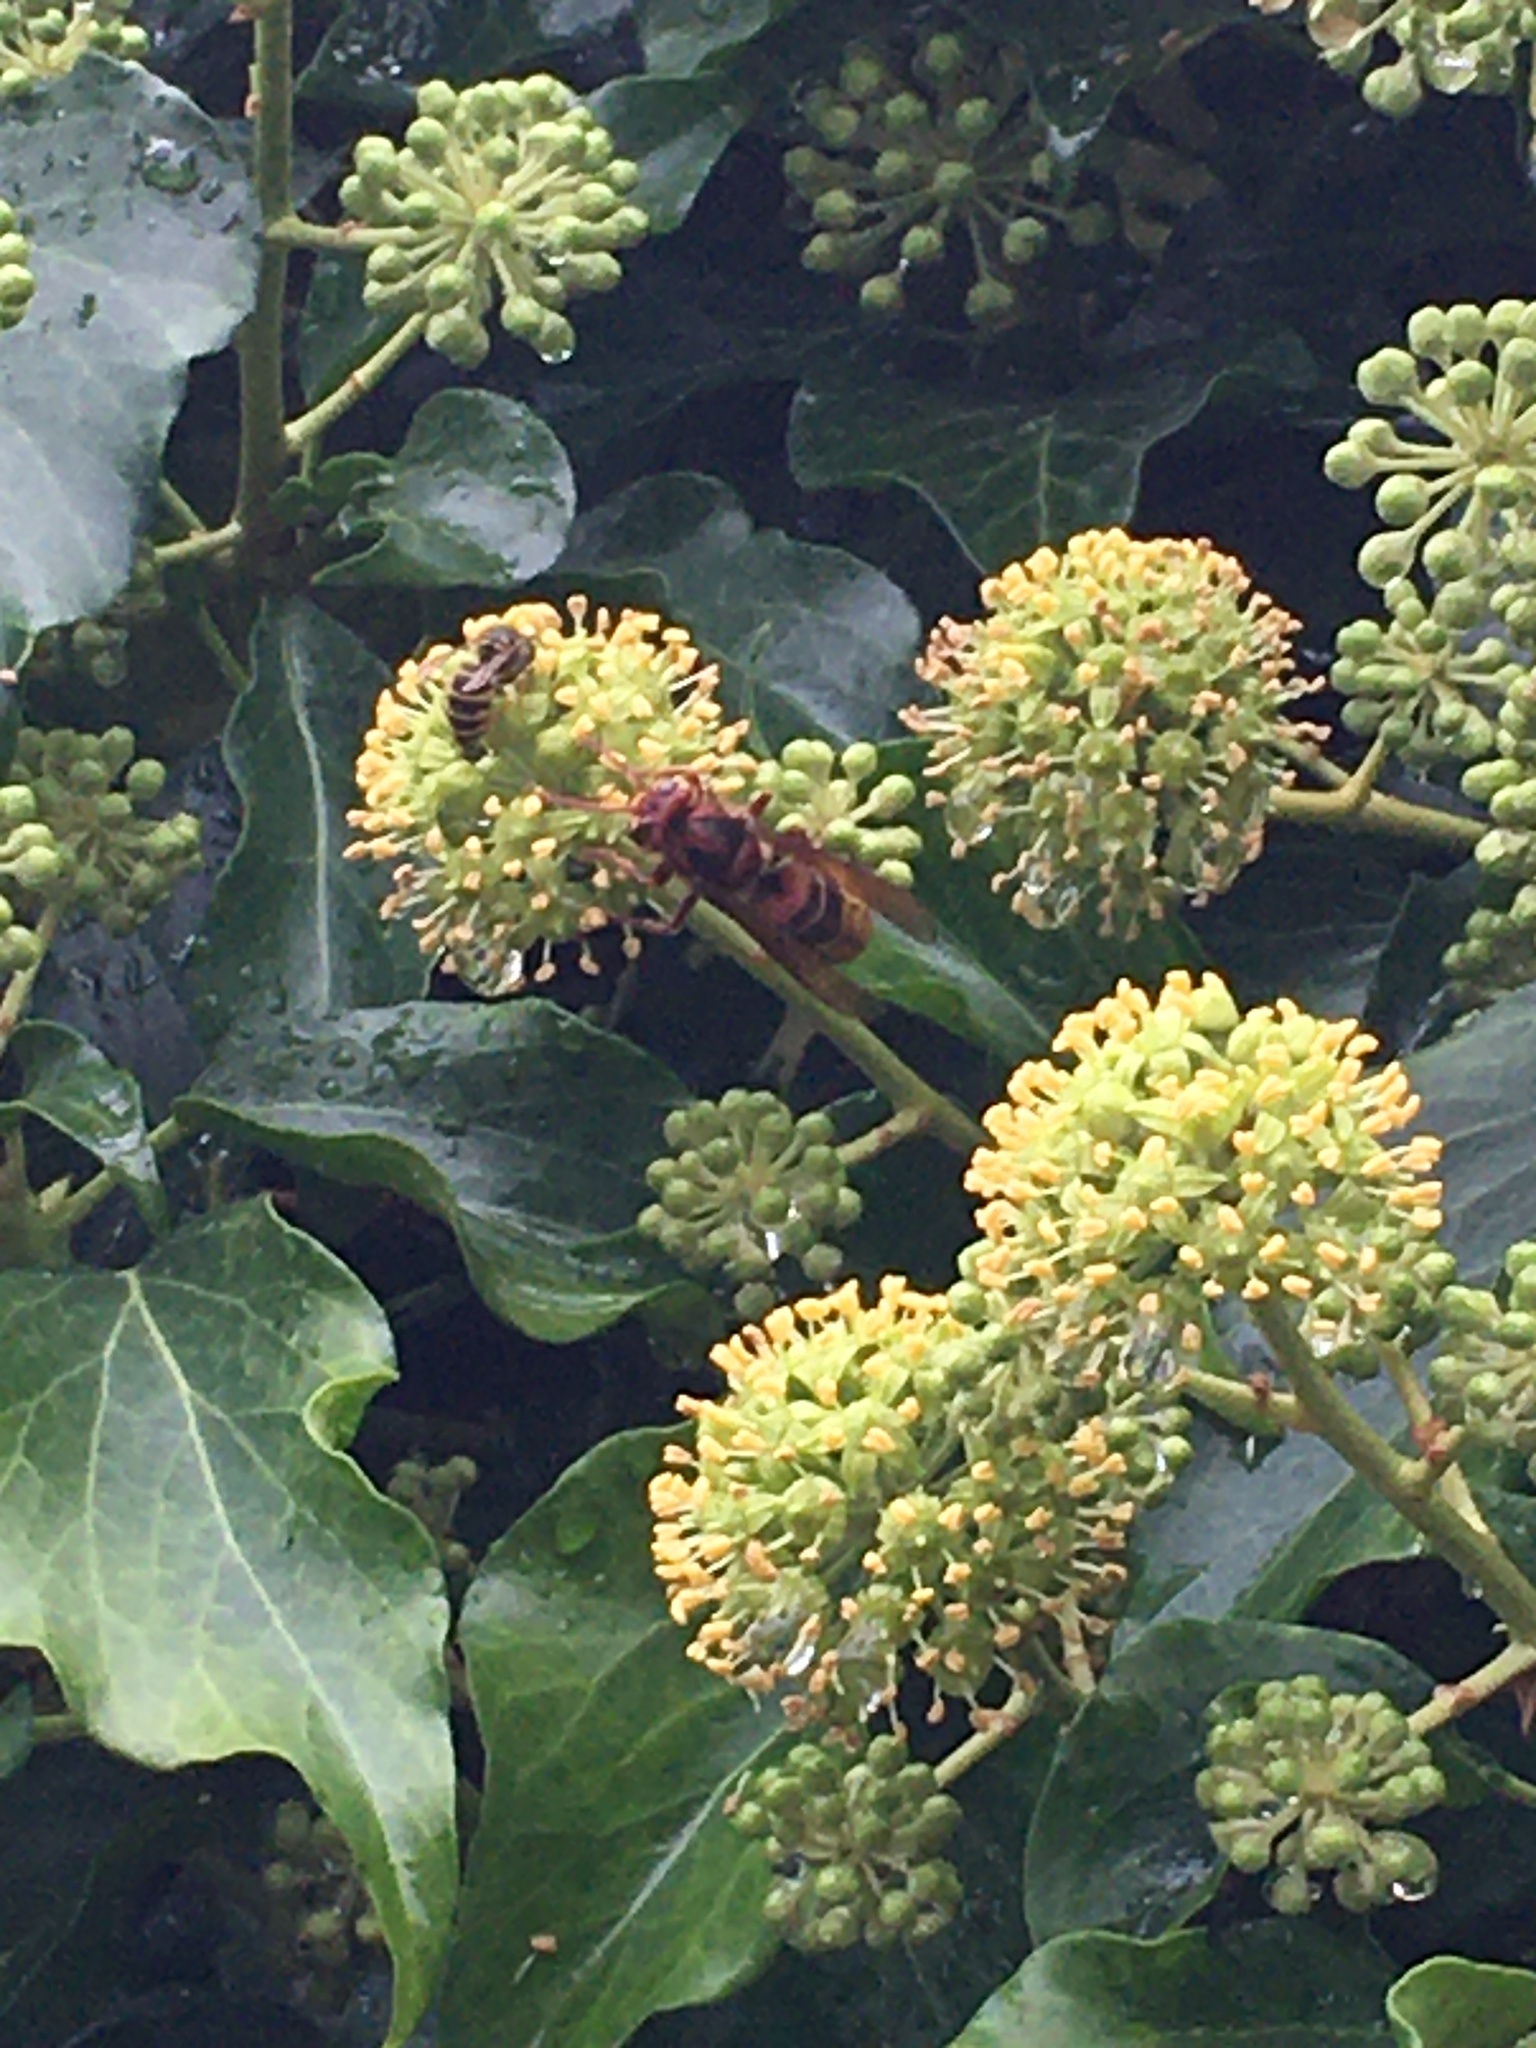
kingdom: Animalia
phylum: Arthropoda
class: Insecta
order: Hymenoptera
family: Vespidae
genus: Vespa
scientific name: Vespa crabro
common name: Hornet
